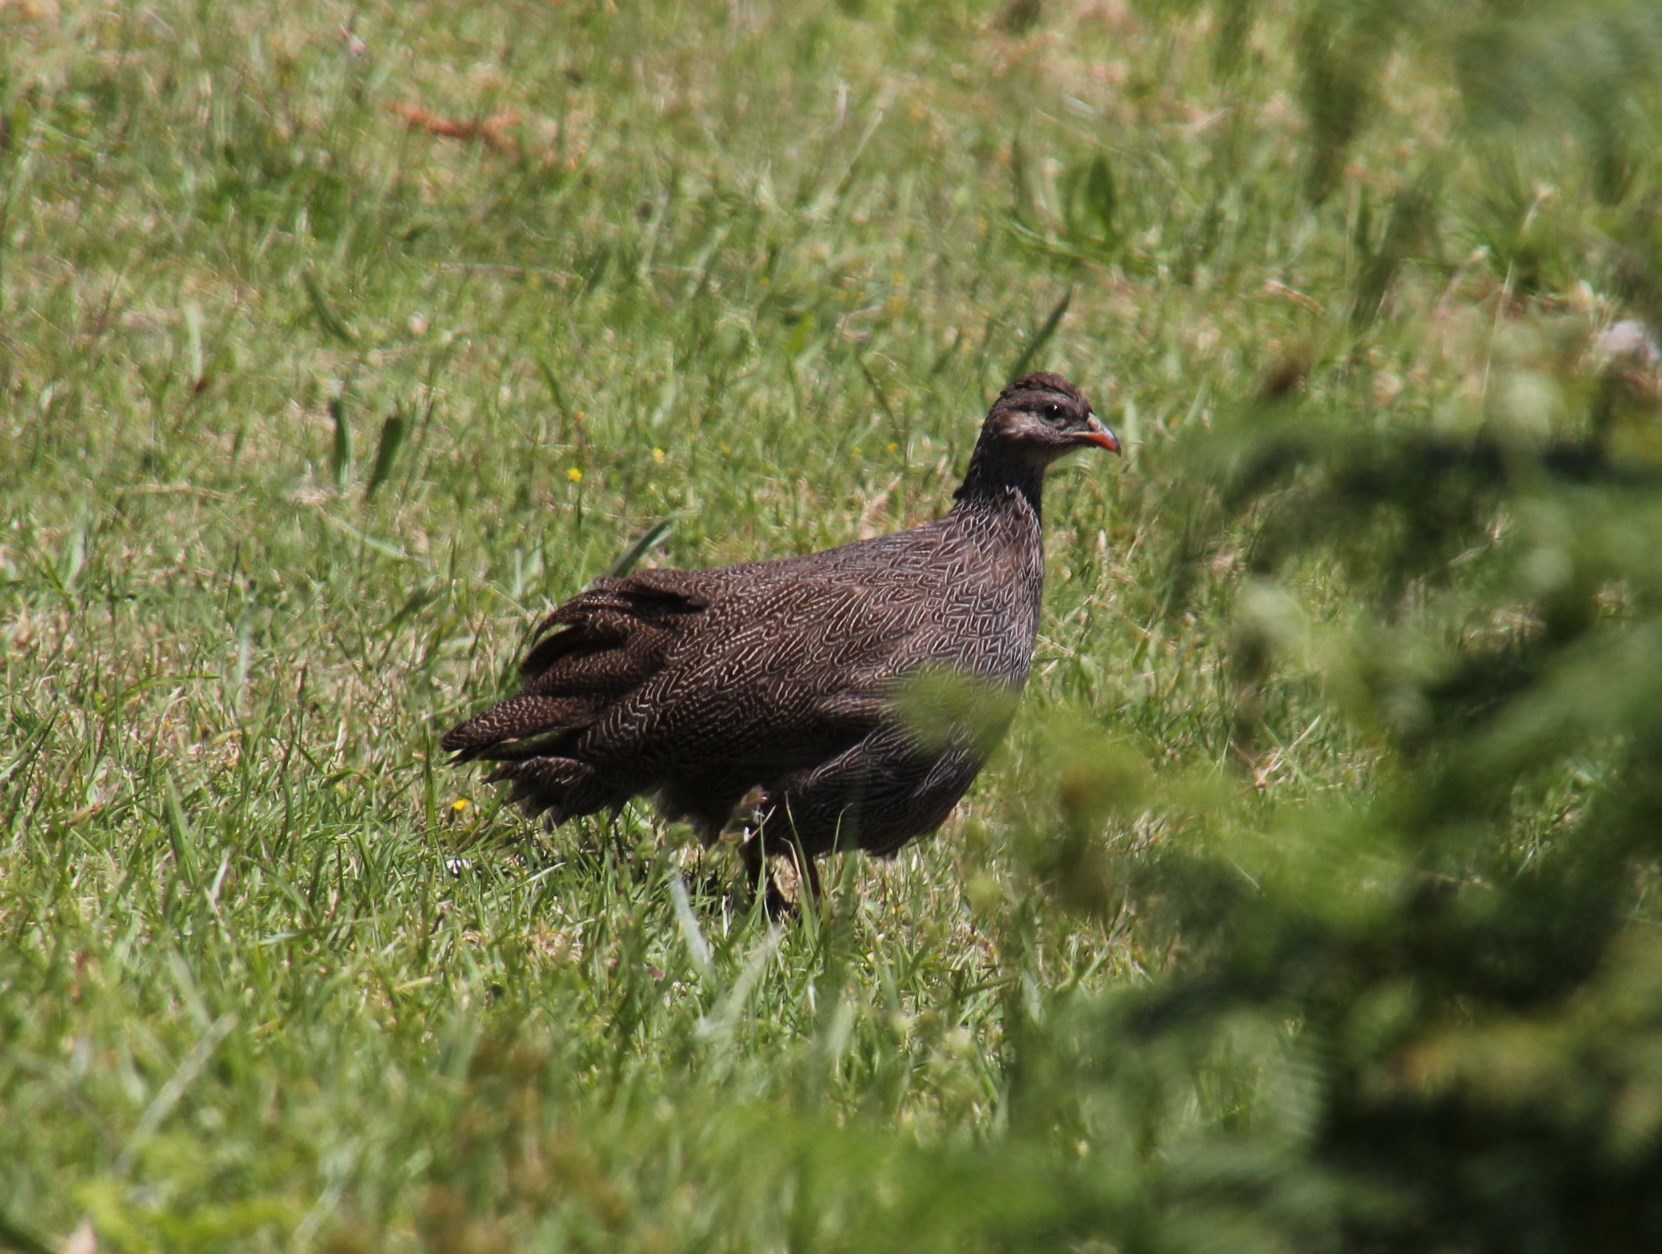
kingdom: Animalia
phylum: Chordata
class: Aves
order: Galliformes
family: Phasianidae
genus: Pternistis
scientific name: Pternistis capensis
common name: Cape spurfowl
